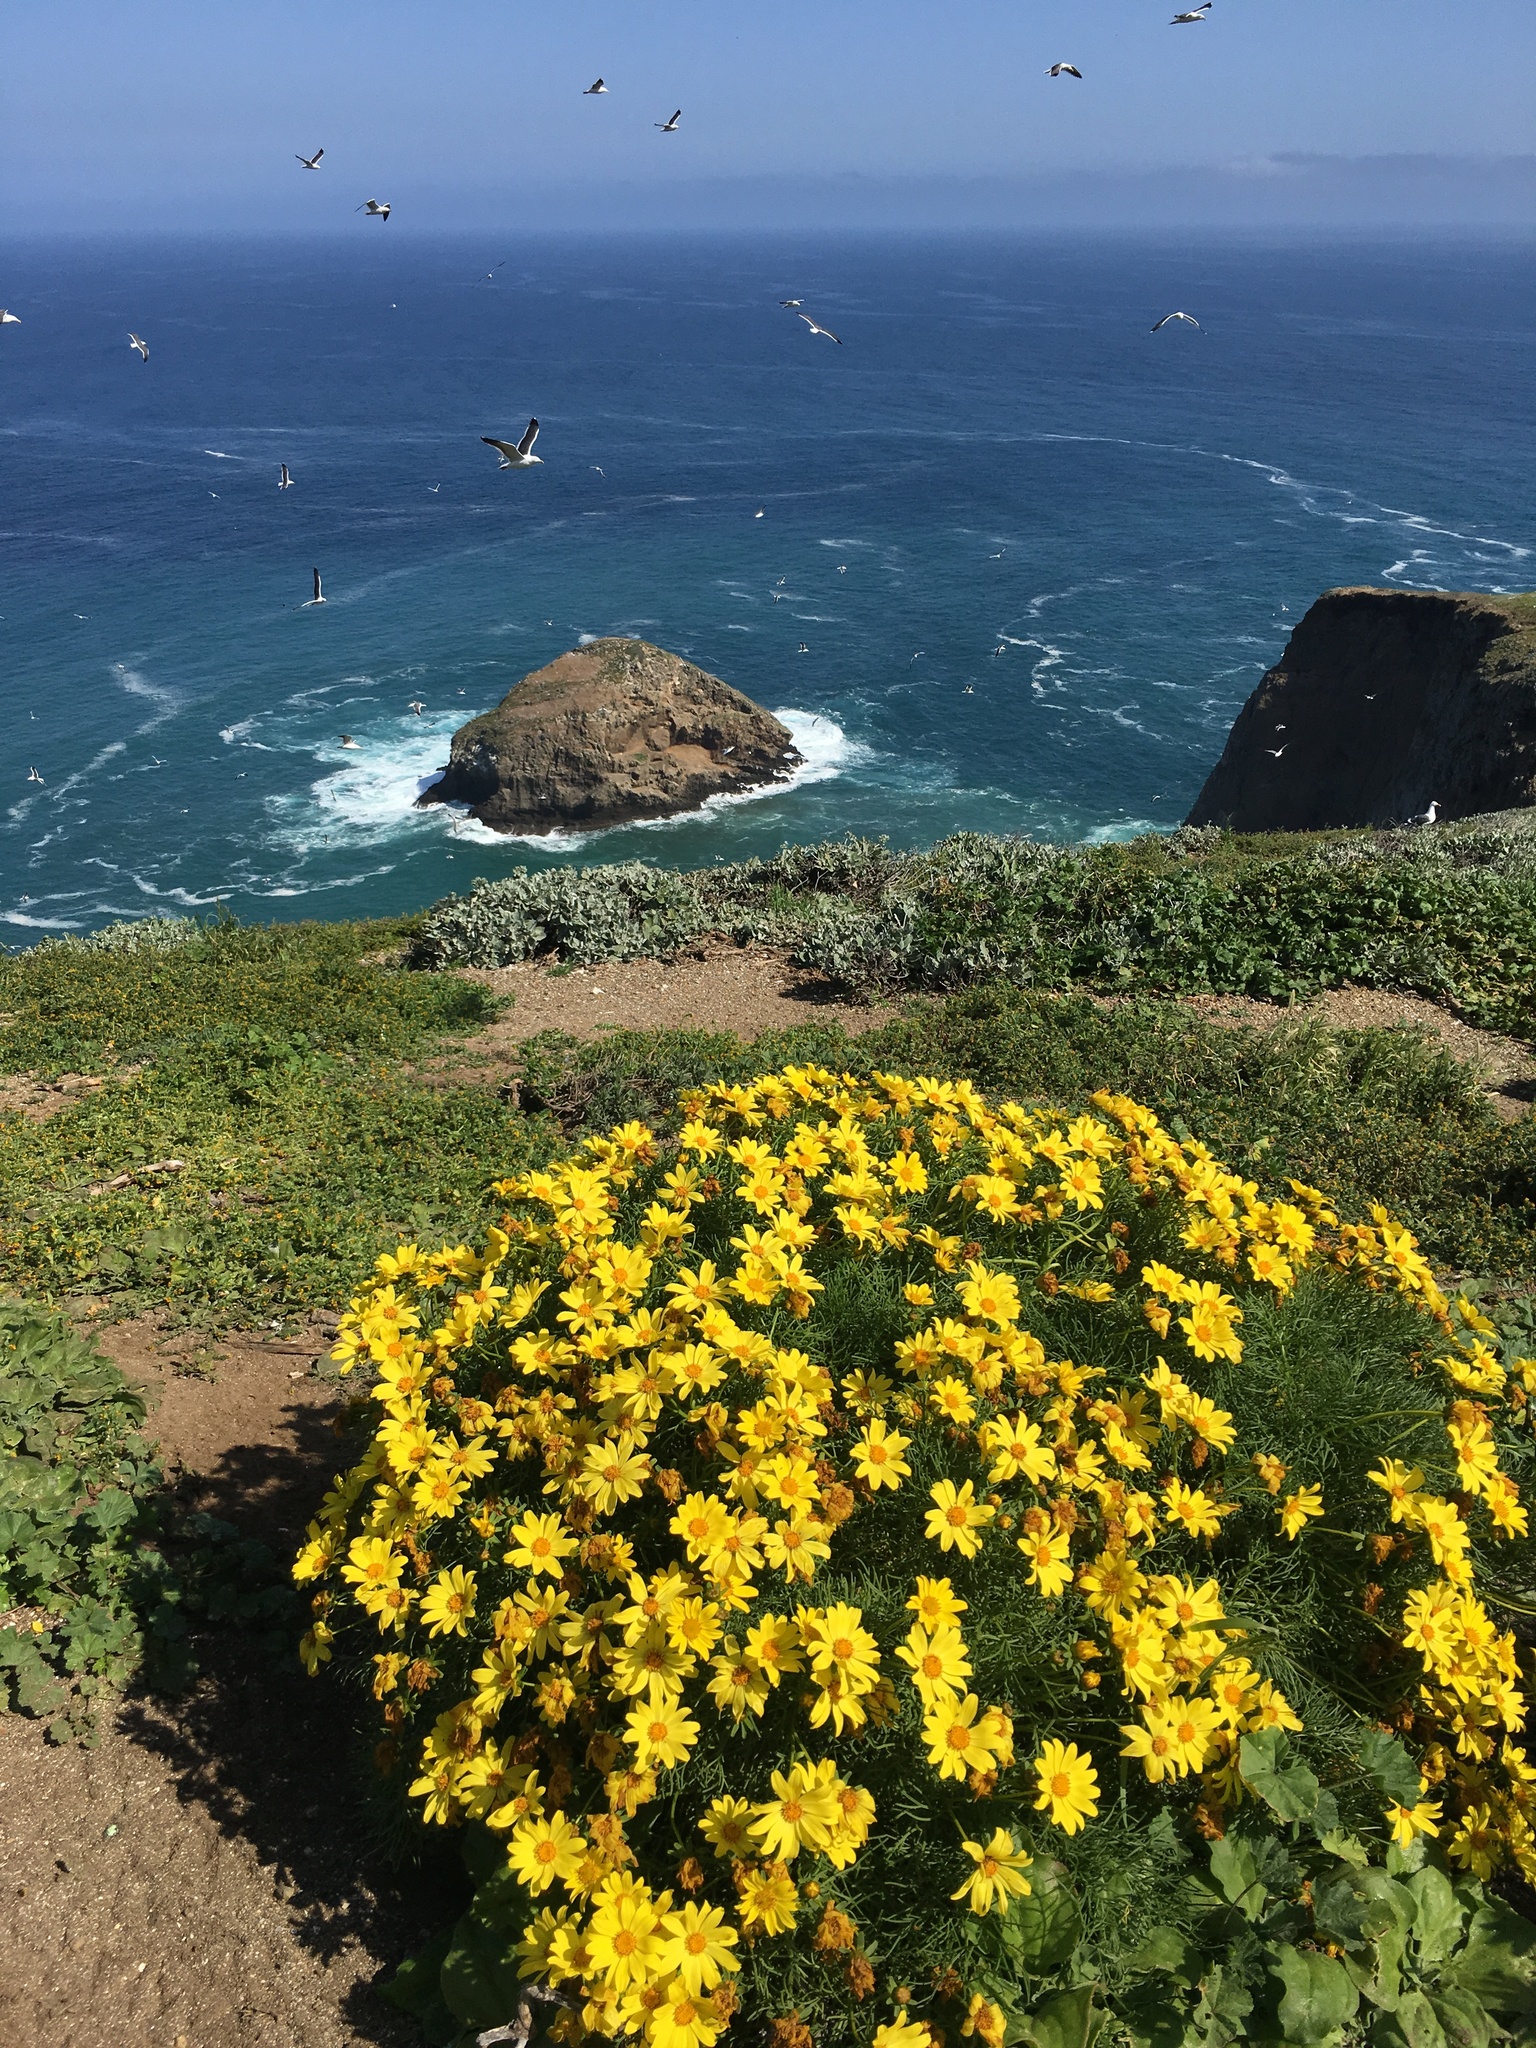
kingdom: Plantae
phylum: Tracheophyta
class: Magnoliopsida
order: Asterales
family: Asteraceae
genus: Coreopsis
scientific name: Coreopsis gigantea
